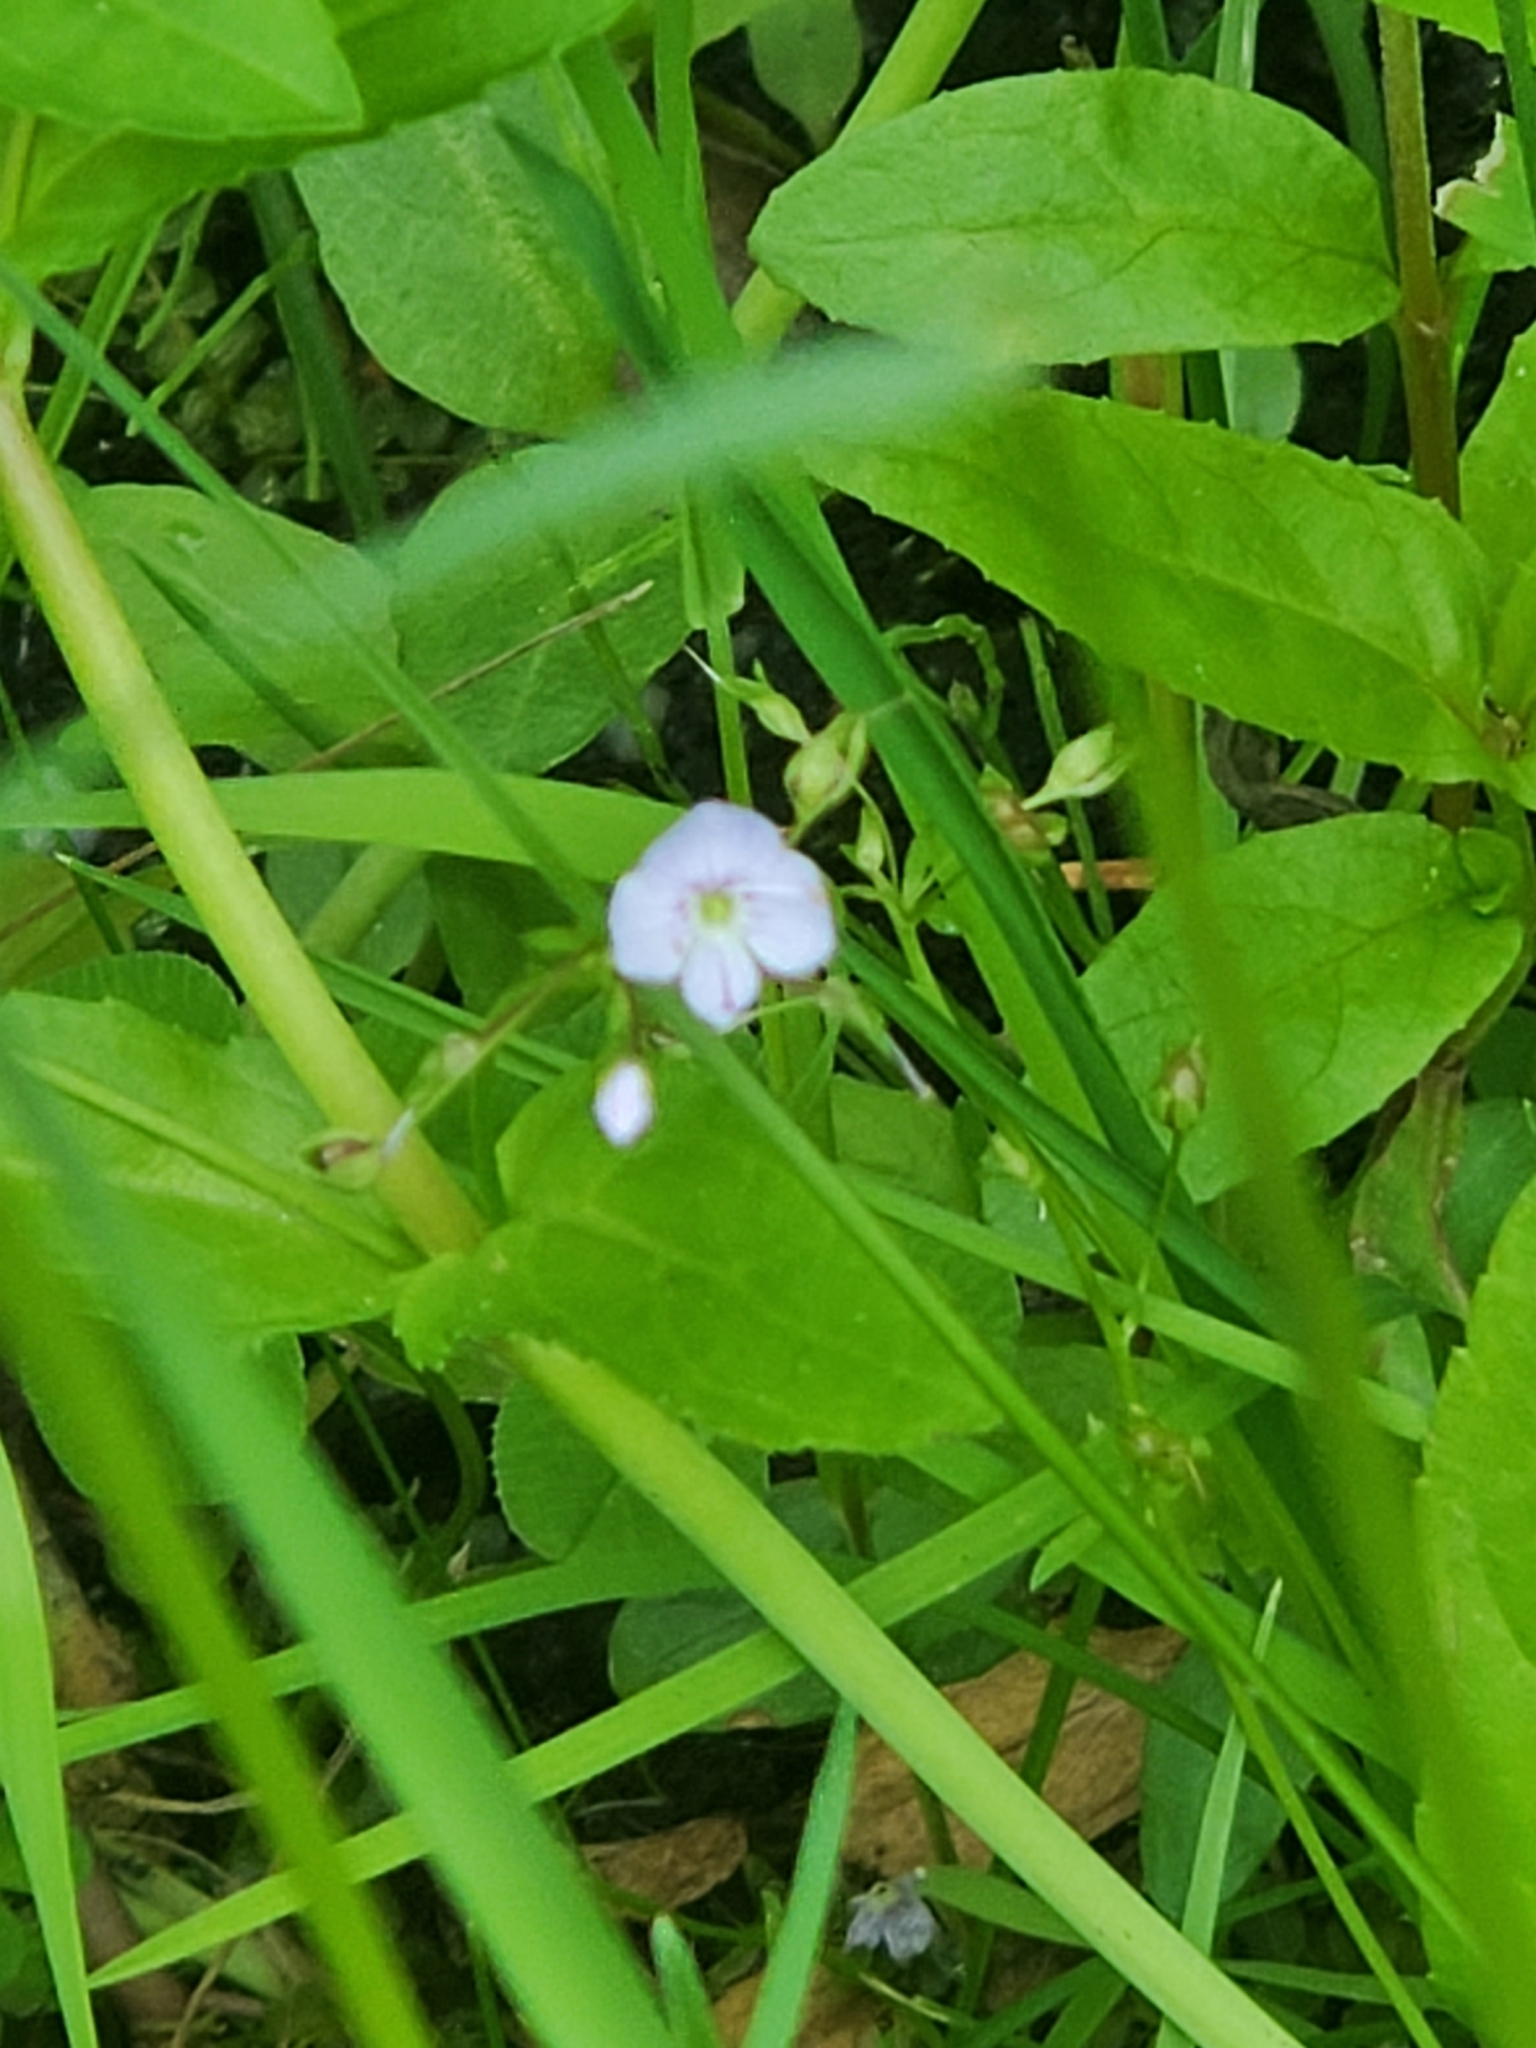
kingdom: Plantae
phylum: Tracheophyta
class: Magnoliopsida
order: Lamiales
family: Plantaginaceae
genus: Veronica
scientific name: Veronica scutellata
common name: Marsh speedwell
